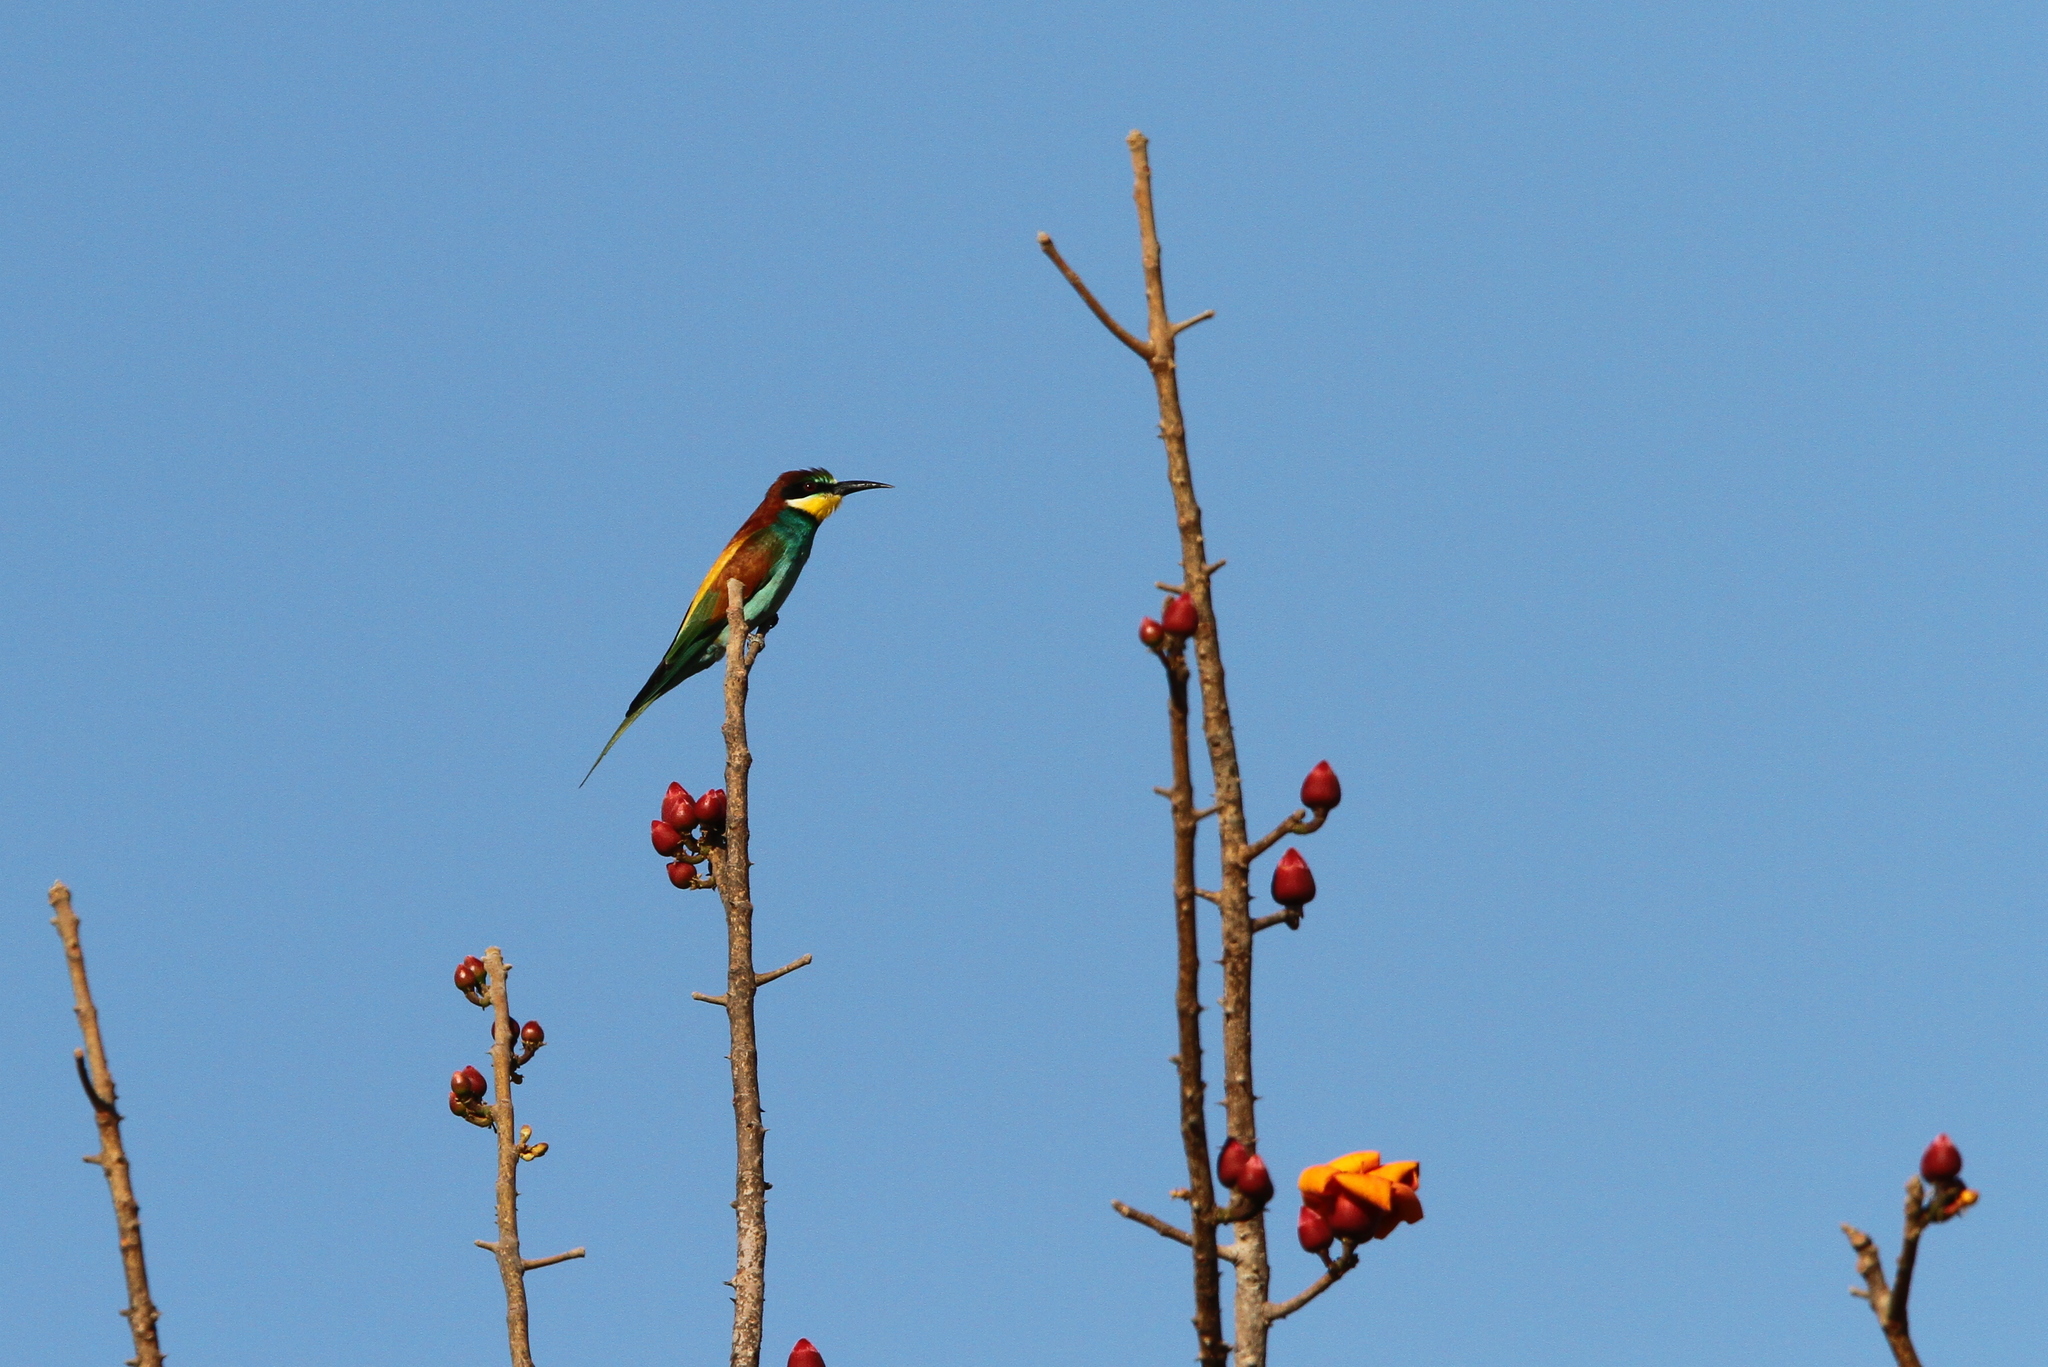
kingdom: Animalia
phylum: Chordata
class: Aves
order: Coraciiformes
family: Meropidae
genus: Merops
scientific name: Merops apiaster
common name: European bee-eater
